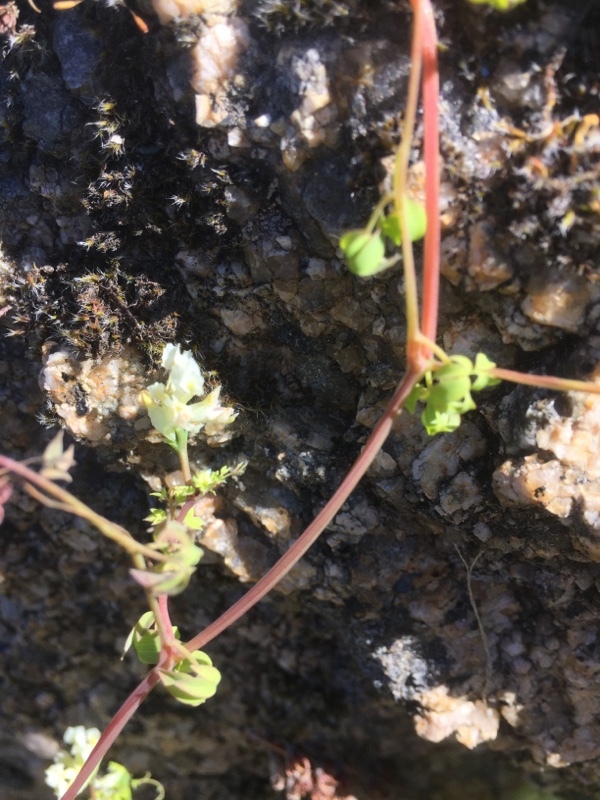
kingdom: Plantae
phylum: Tracheophyta
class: Magnoliopsida
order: Ranunculales
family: Papaveraceae
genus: Ceratocapnos
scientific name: Ceratocapnos claviculata
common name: Climbing corydalis
